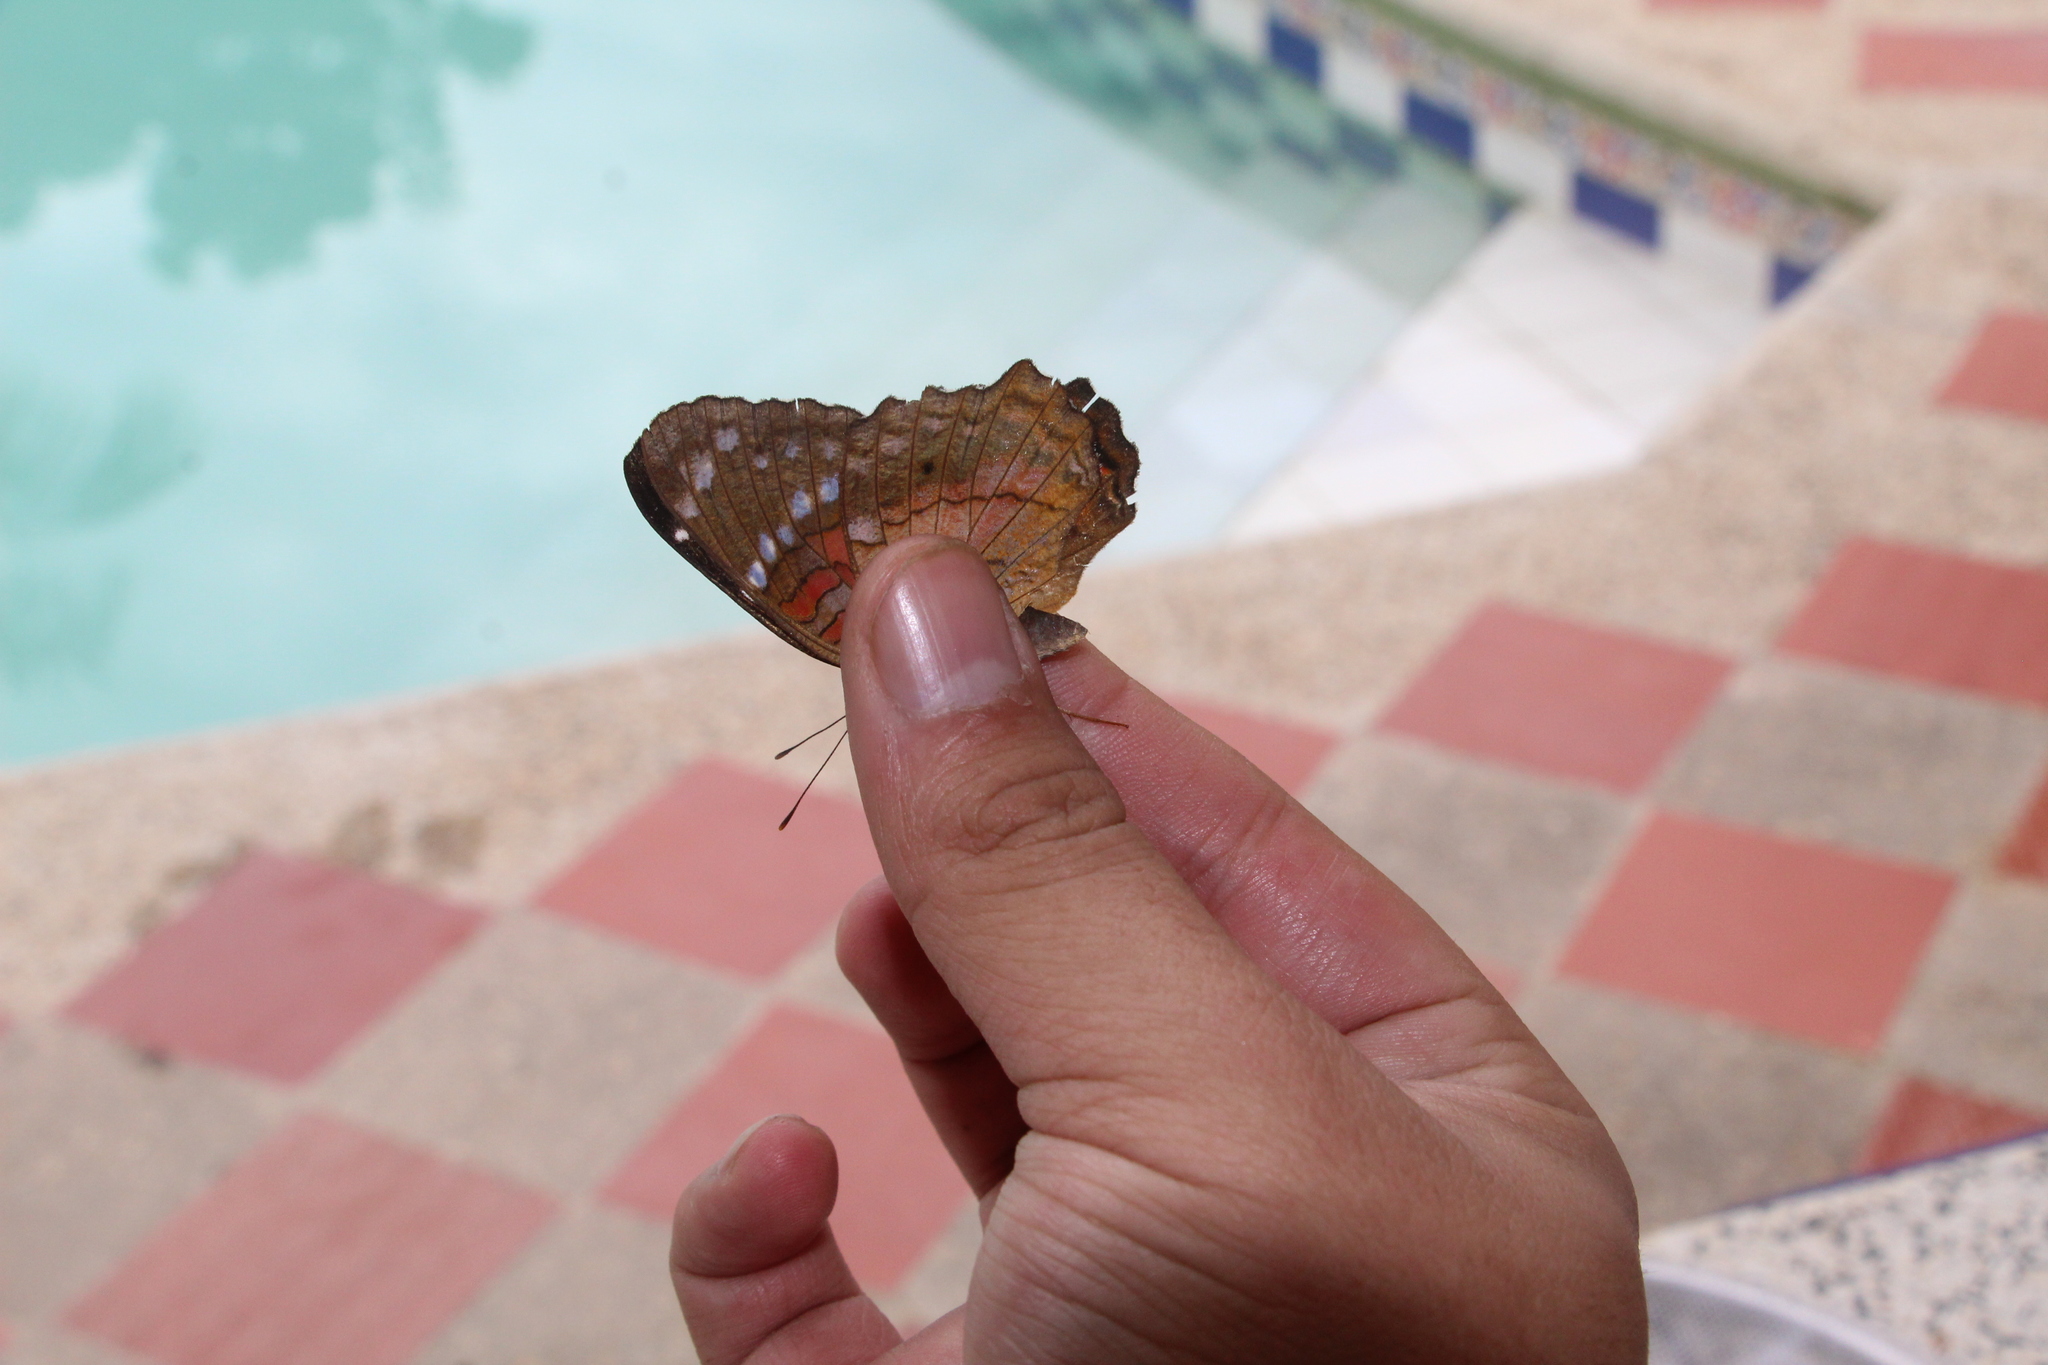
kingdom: Animalia
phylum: Arthropoda
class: Insecta
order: Lepidoptera
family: Nymphalidae
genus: Anartia
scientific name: Anartia amathea
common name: Red peacock
